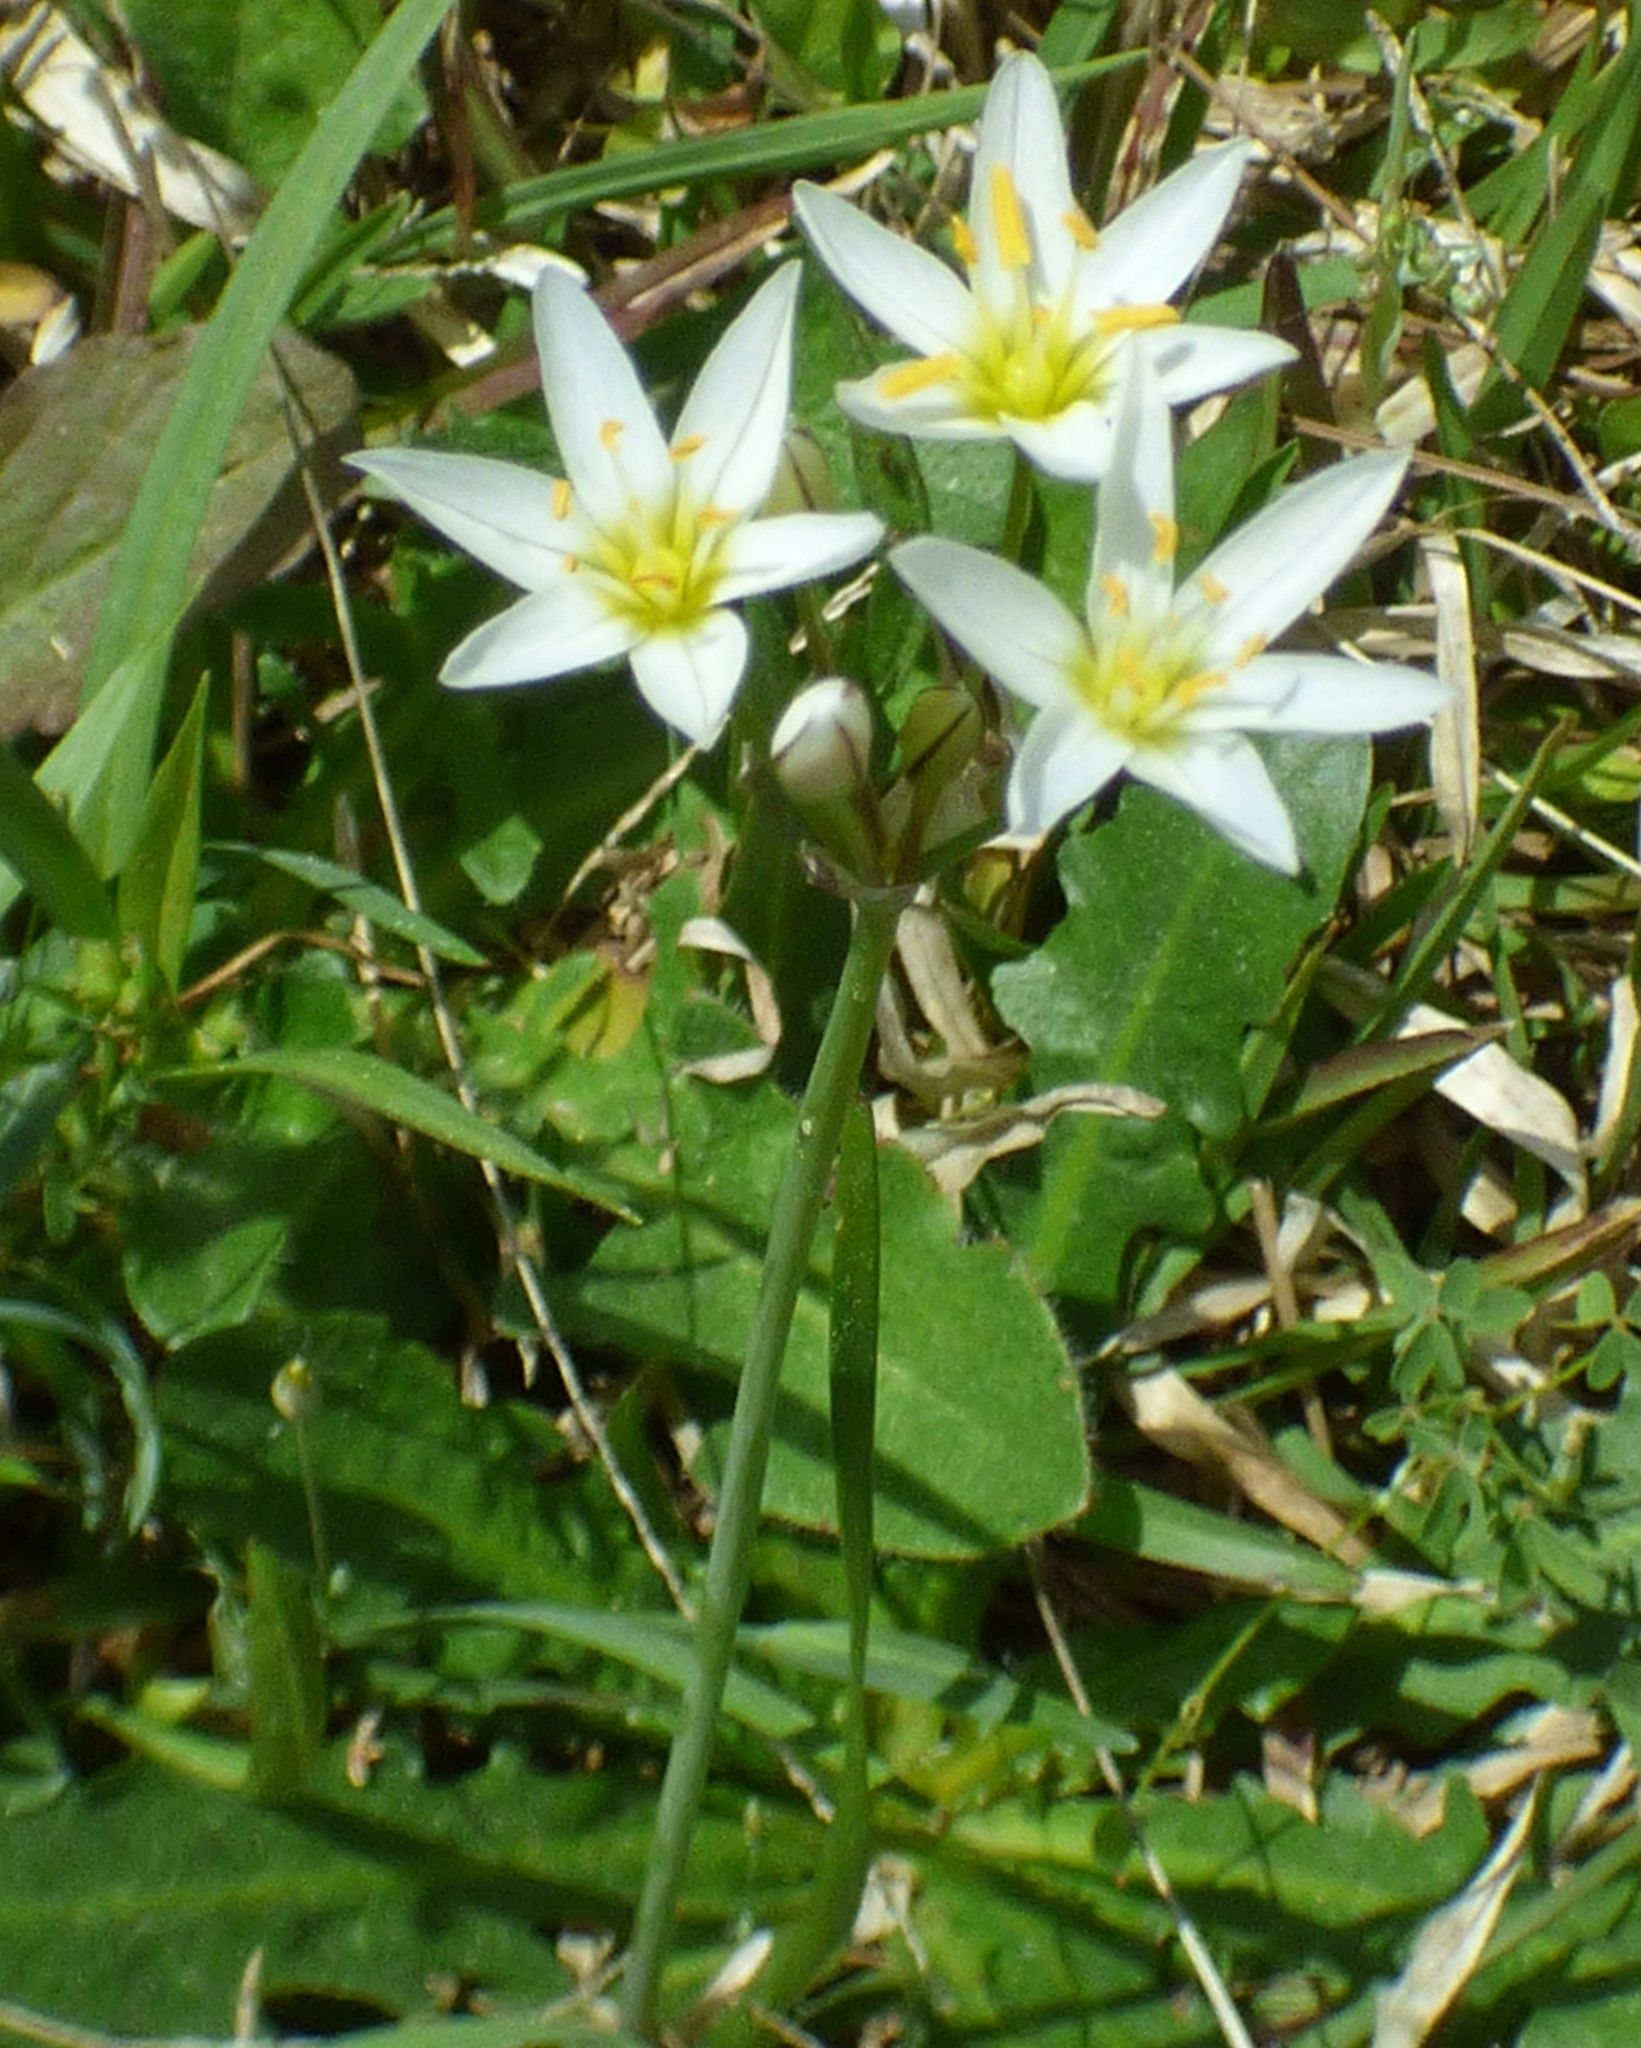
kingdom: Plantae
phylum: Tracheophyta
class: Liliopsida
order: Asparagales
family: Amaryllidaceae
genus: Nothoscordum
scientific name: Nothoscordum bivalve
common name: Crow-poison
